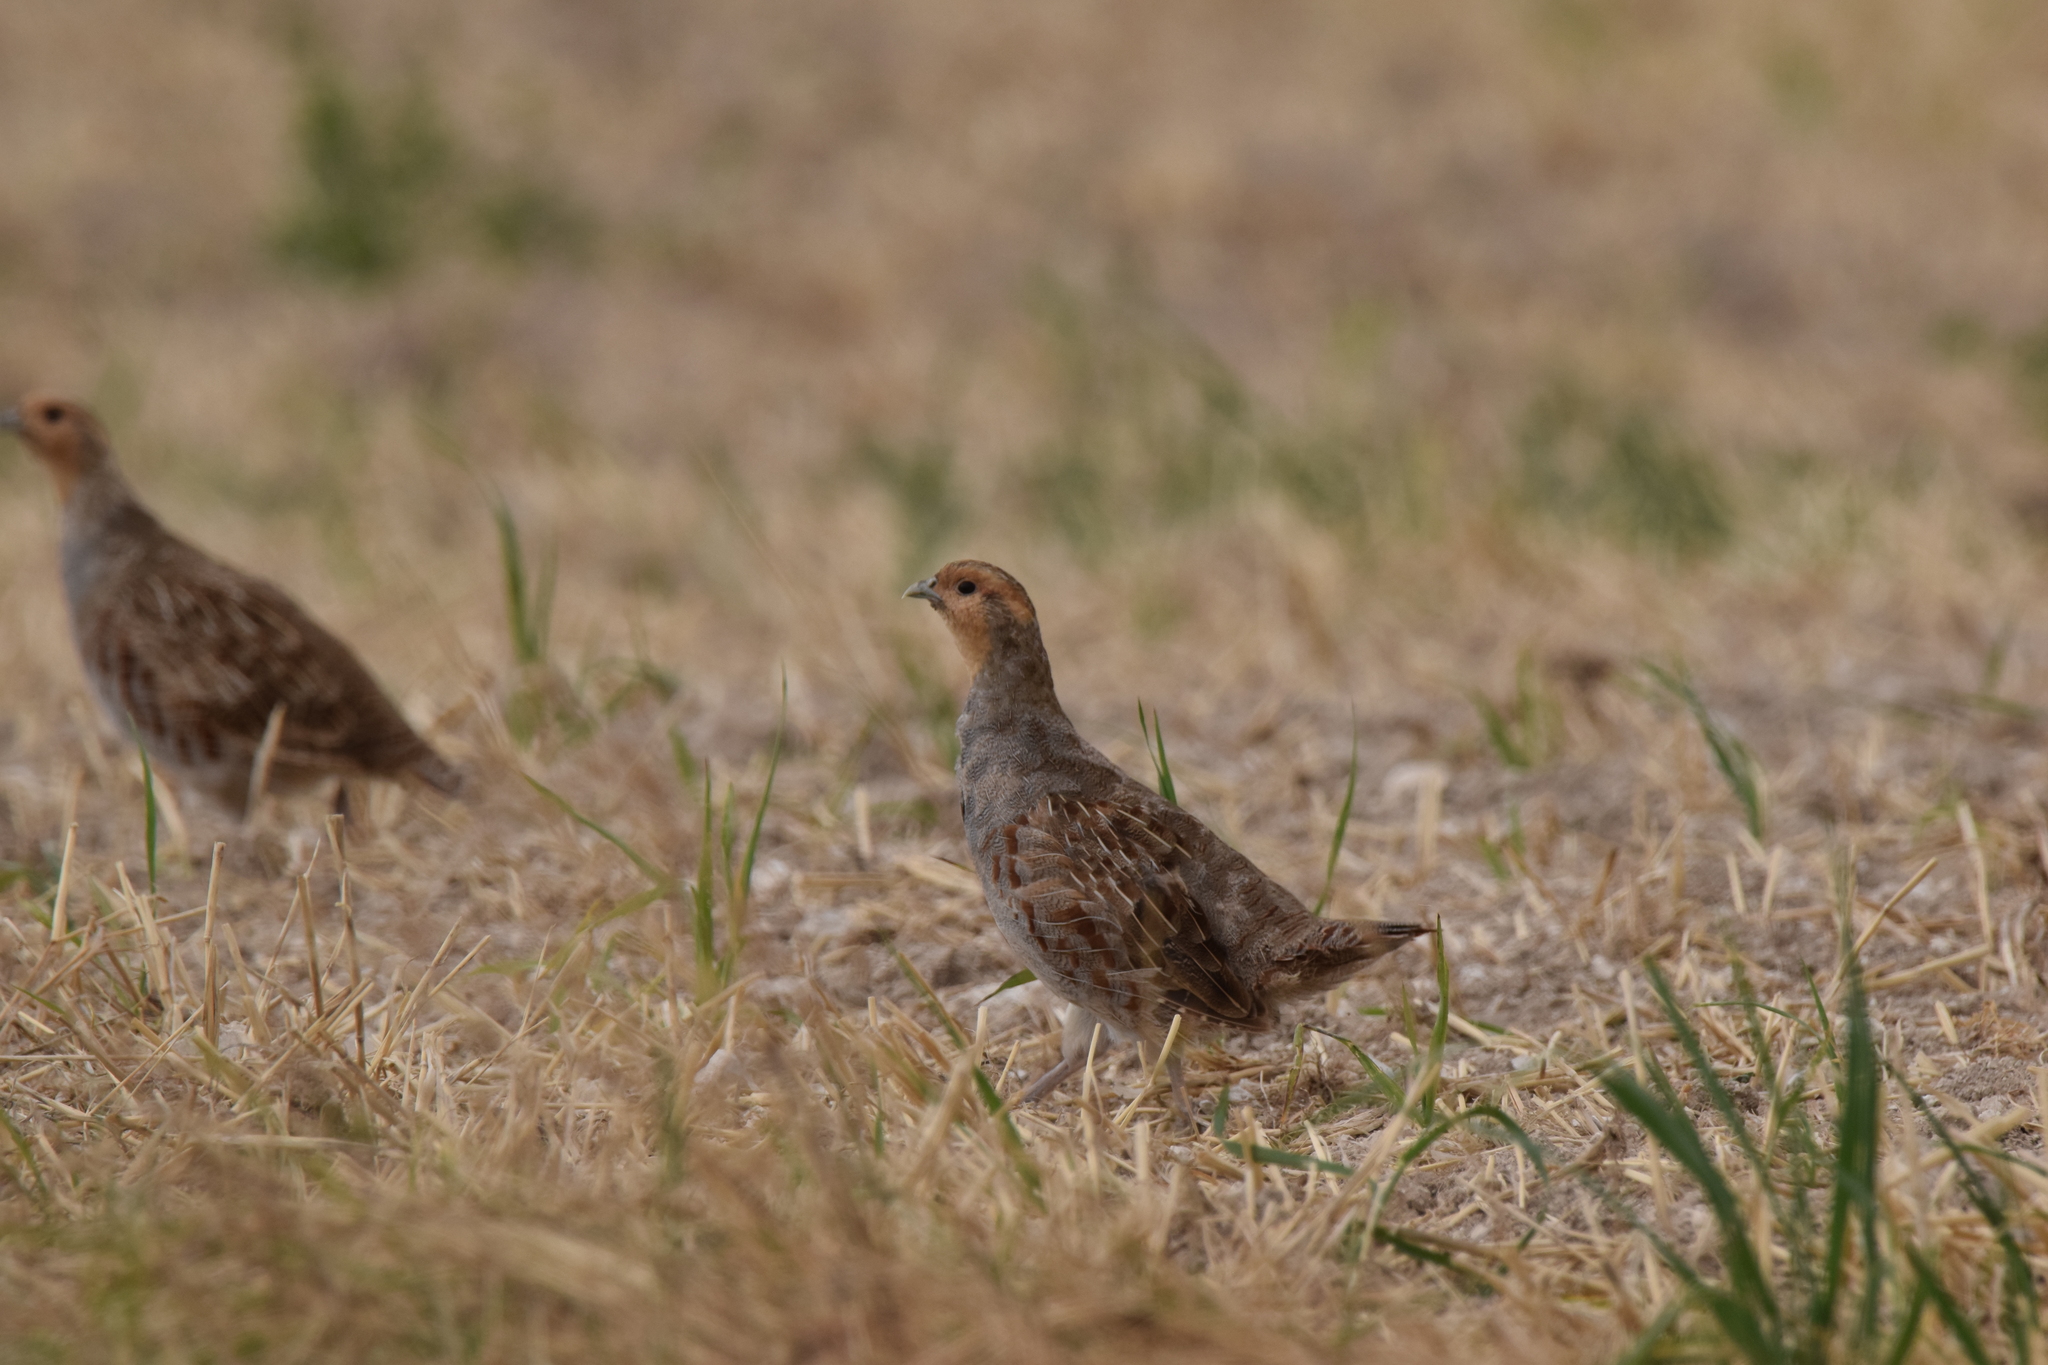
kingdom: Animalia
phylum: Chordata
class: Aves
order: Galliformes
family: Phasianidae
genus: Perdix
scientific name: Perdix perdix
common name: Grey partridge
